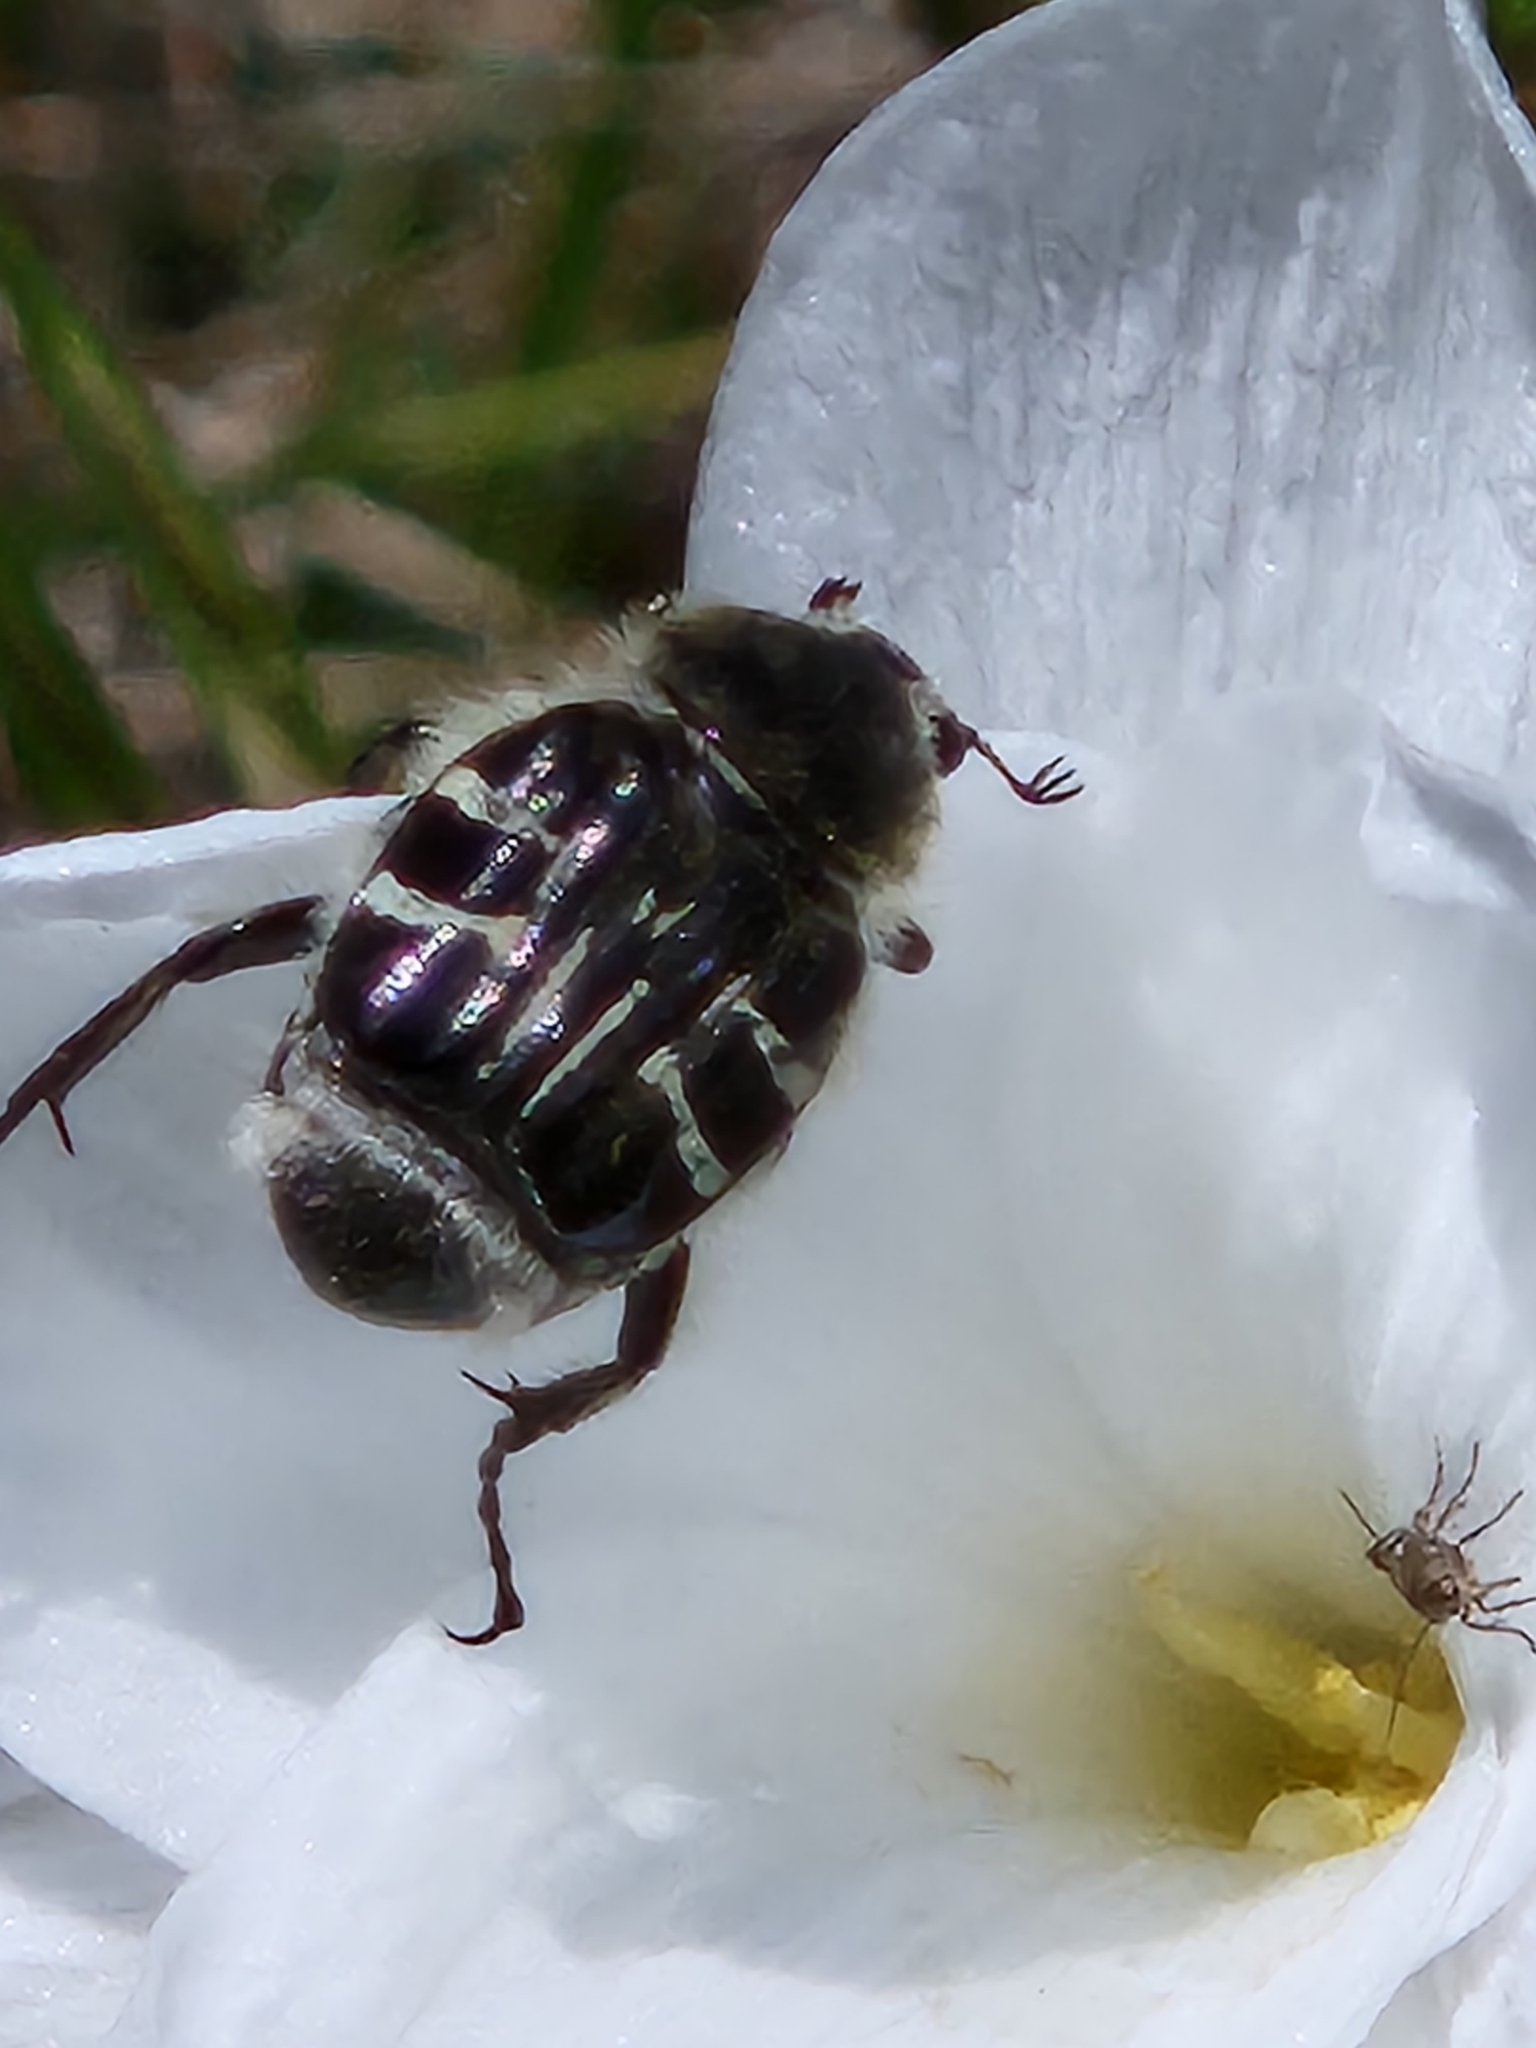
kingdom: Animalia
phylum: Arthropoda
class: Insecta
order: Coleoptera
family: Scarabaeidae
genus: Trichiotinus
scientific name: Trichiotinus texanus
